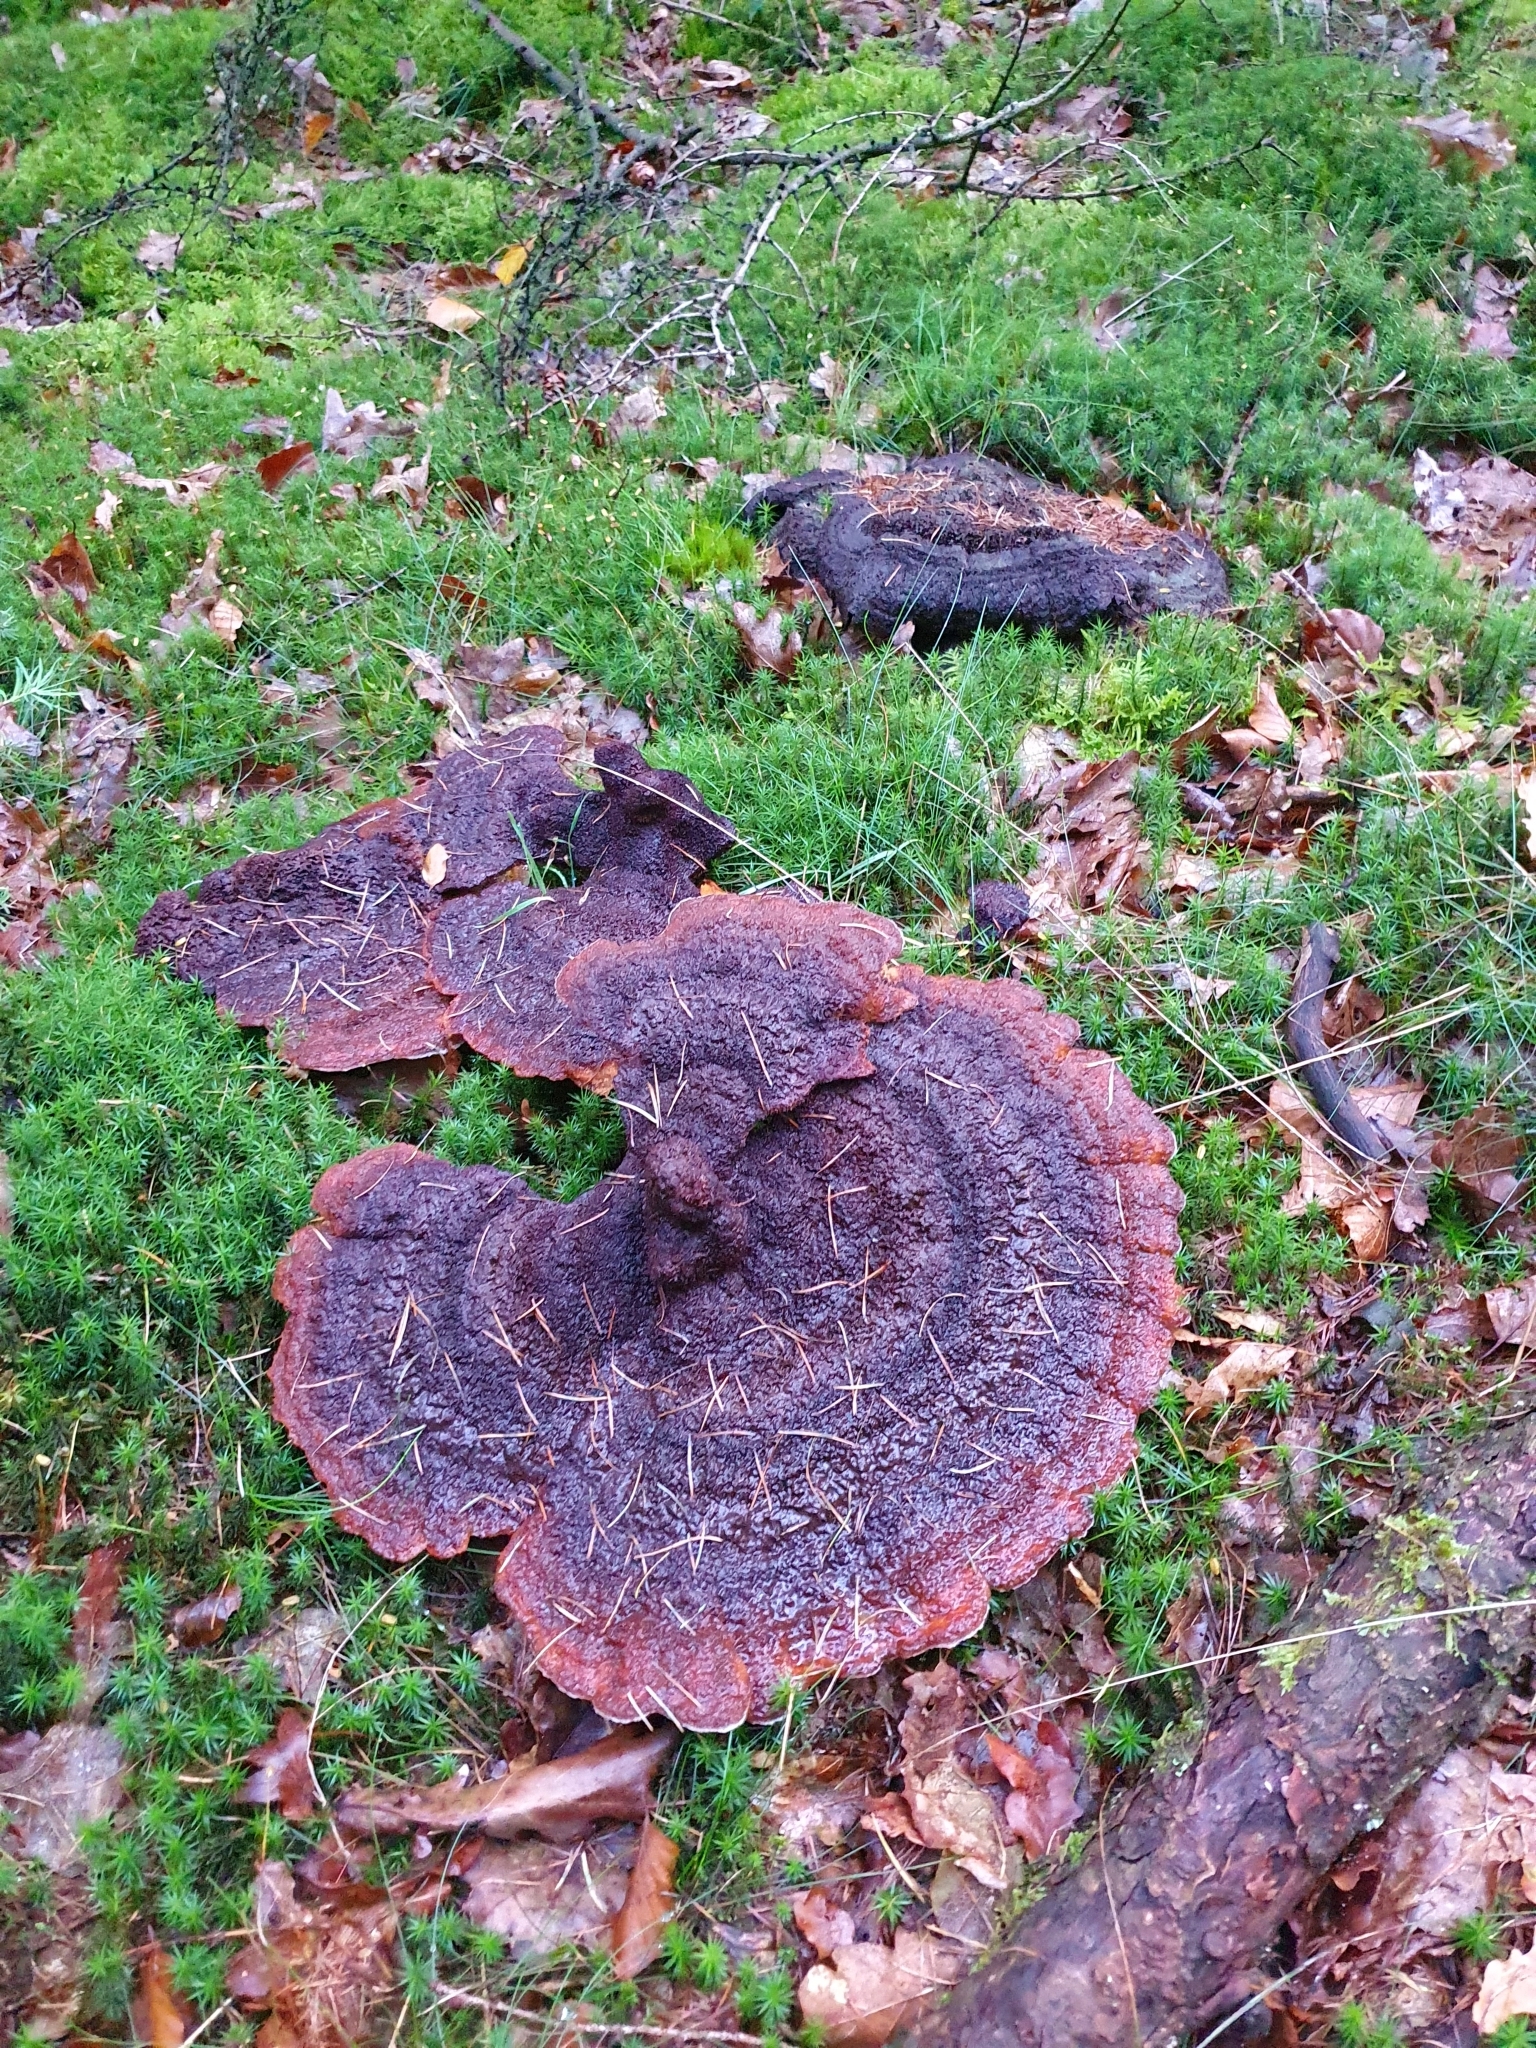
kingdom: Fungi
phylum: Basidiomycota
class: Agaricomycetes
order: Polyporales
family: Laetiporaceae
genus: Phaeolus
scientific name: Phaeolus schweinitzii
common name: Dyer's mazegill
